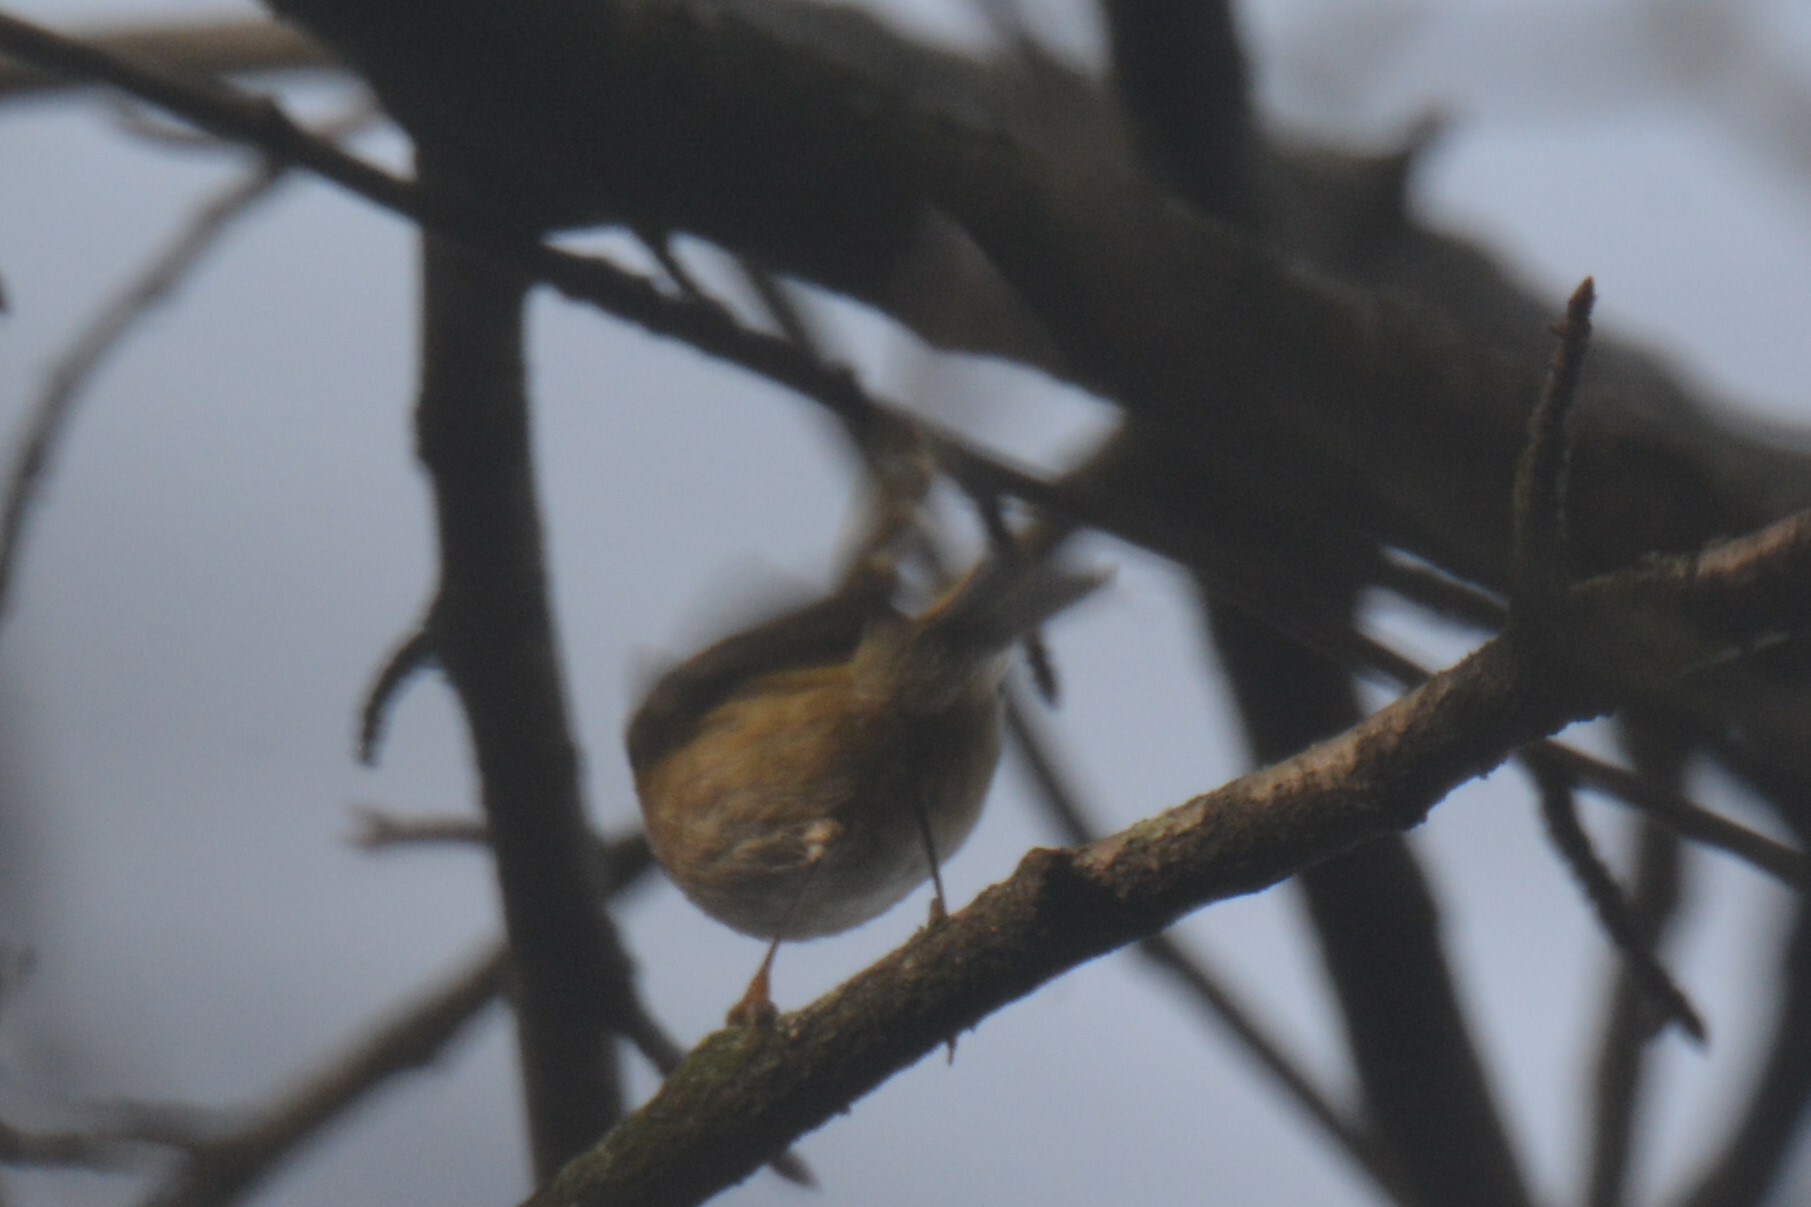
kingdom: Animalia
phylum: Chordata
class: Aves
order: Passeriformes
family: Regulidae
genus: Regulus
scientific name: Regulus regulus
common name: Goldcrest
